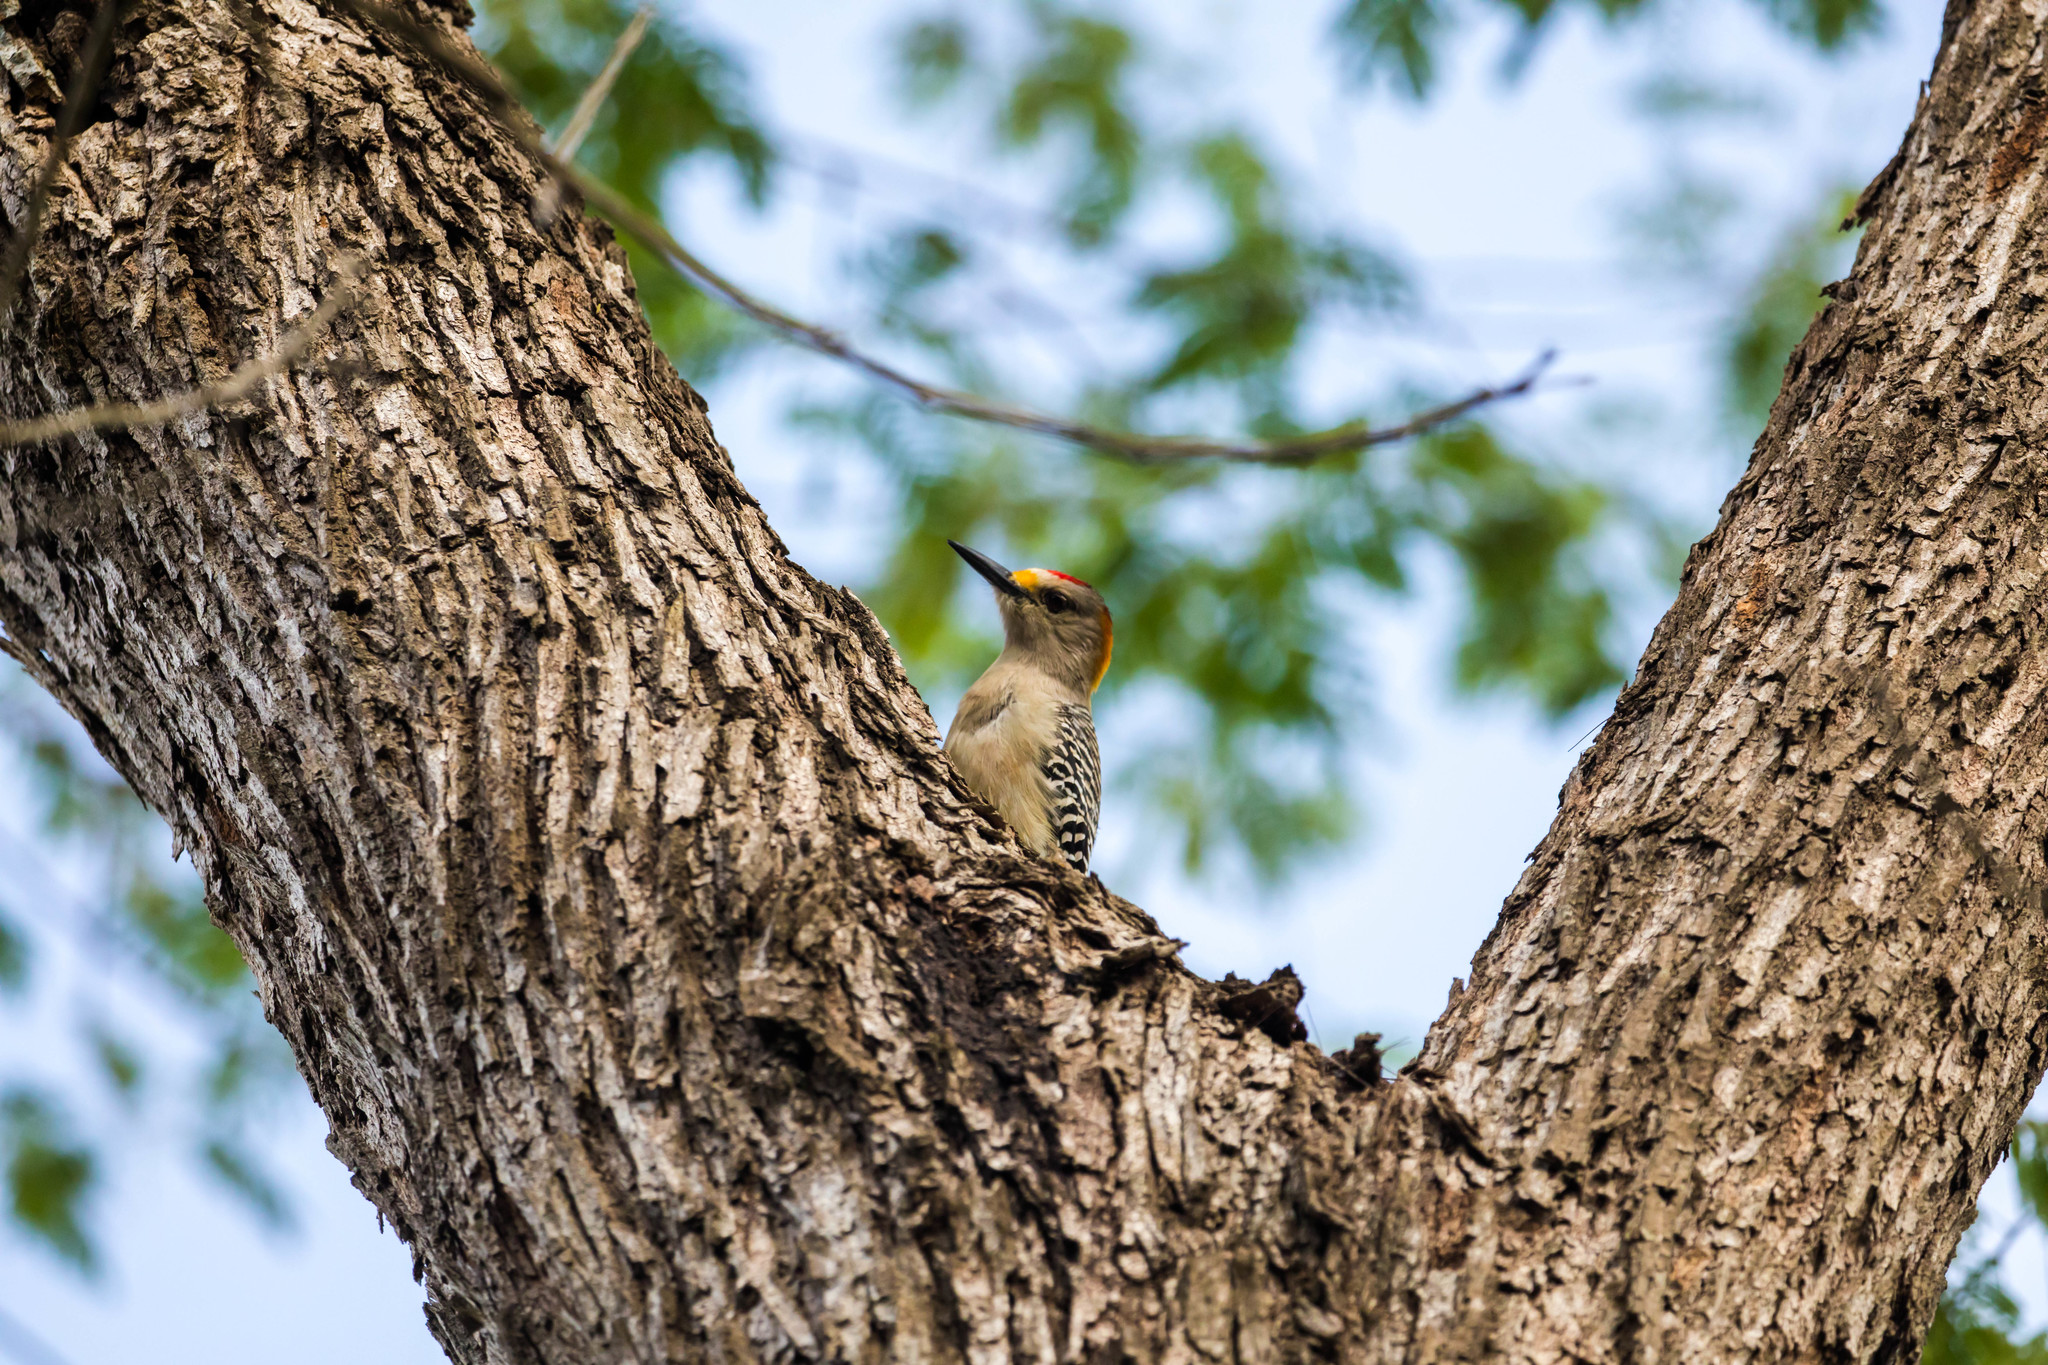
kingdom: Animalia
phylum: Chordata
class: Aves
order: Piciformes
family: Picidae
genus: Melanerpes
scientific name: Melanerpes aurifrons
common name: Golden-fronted woodpecker
